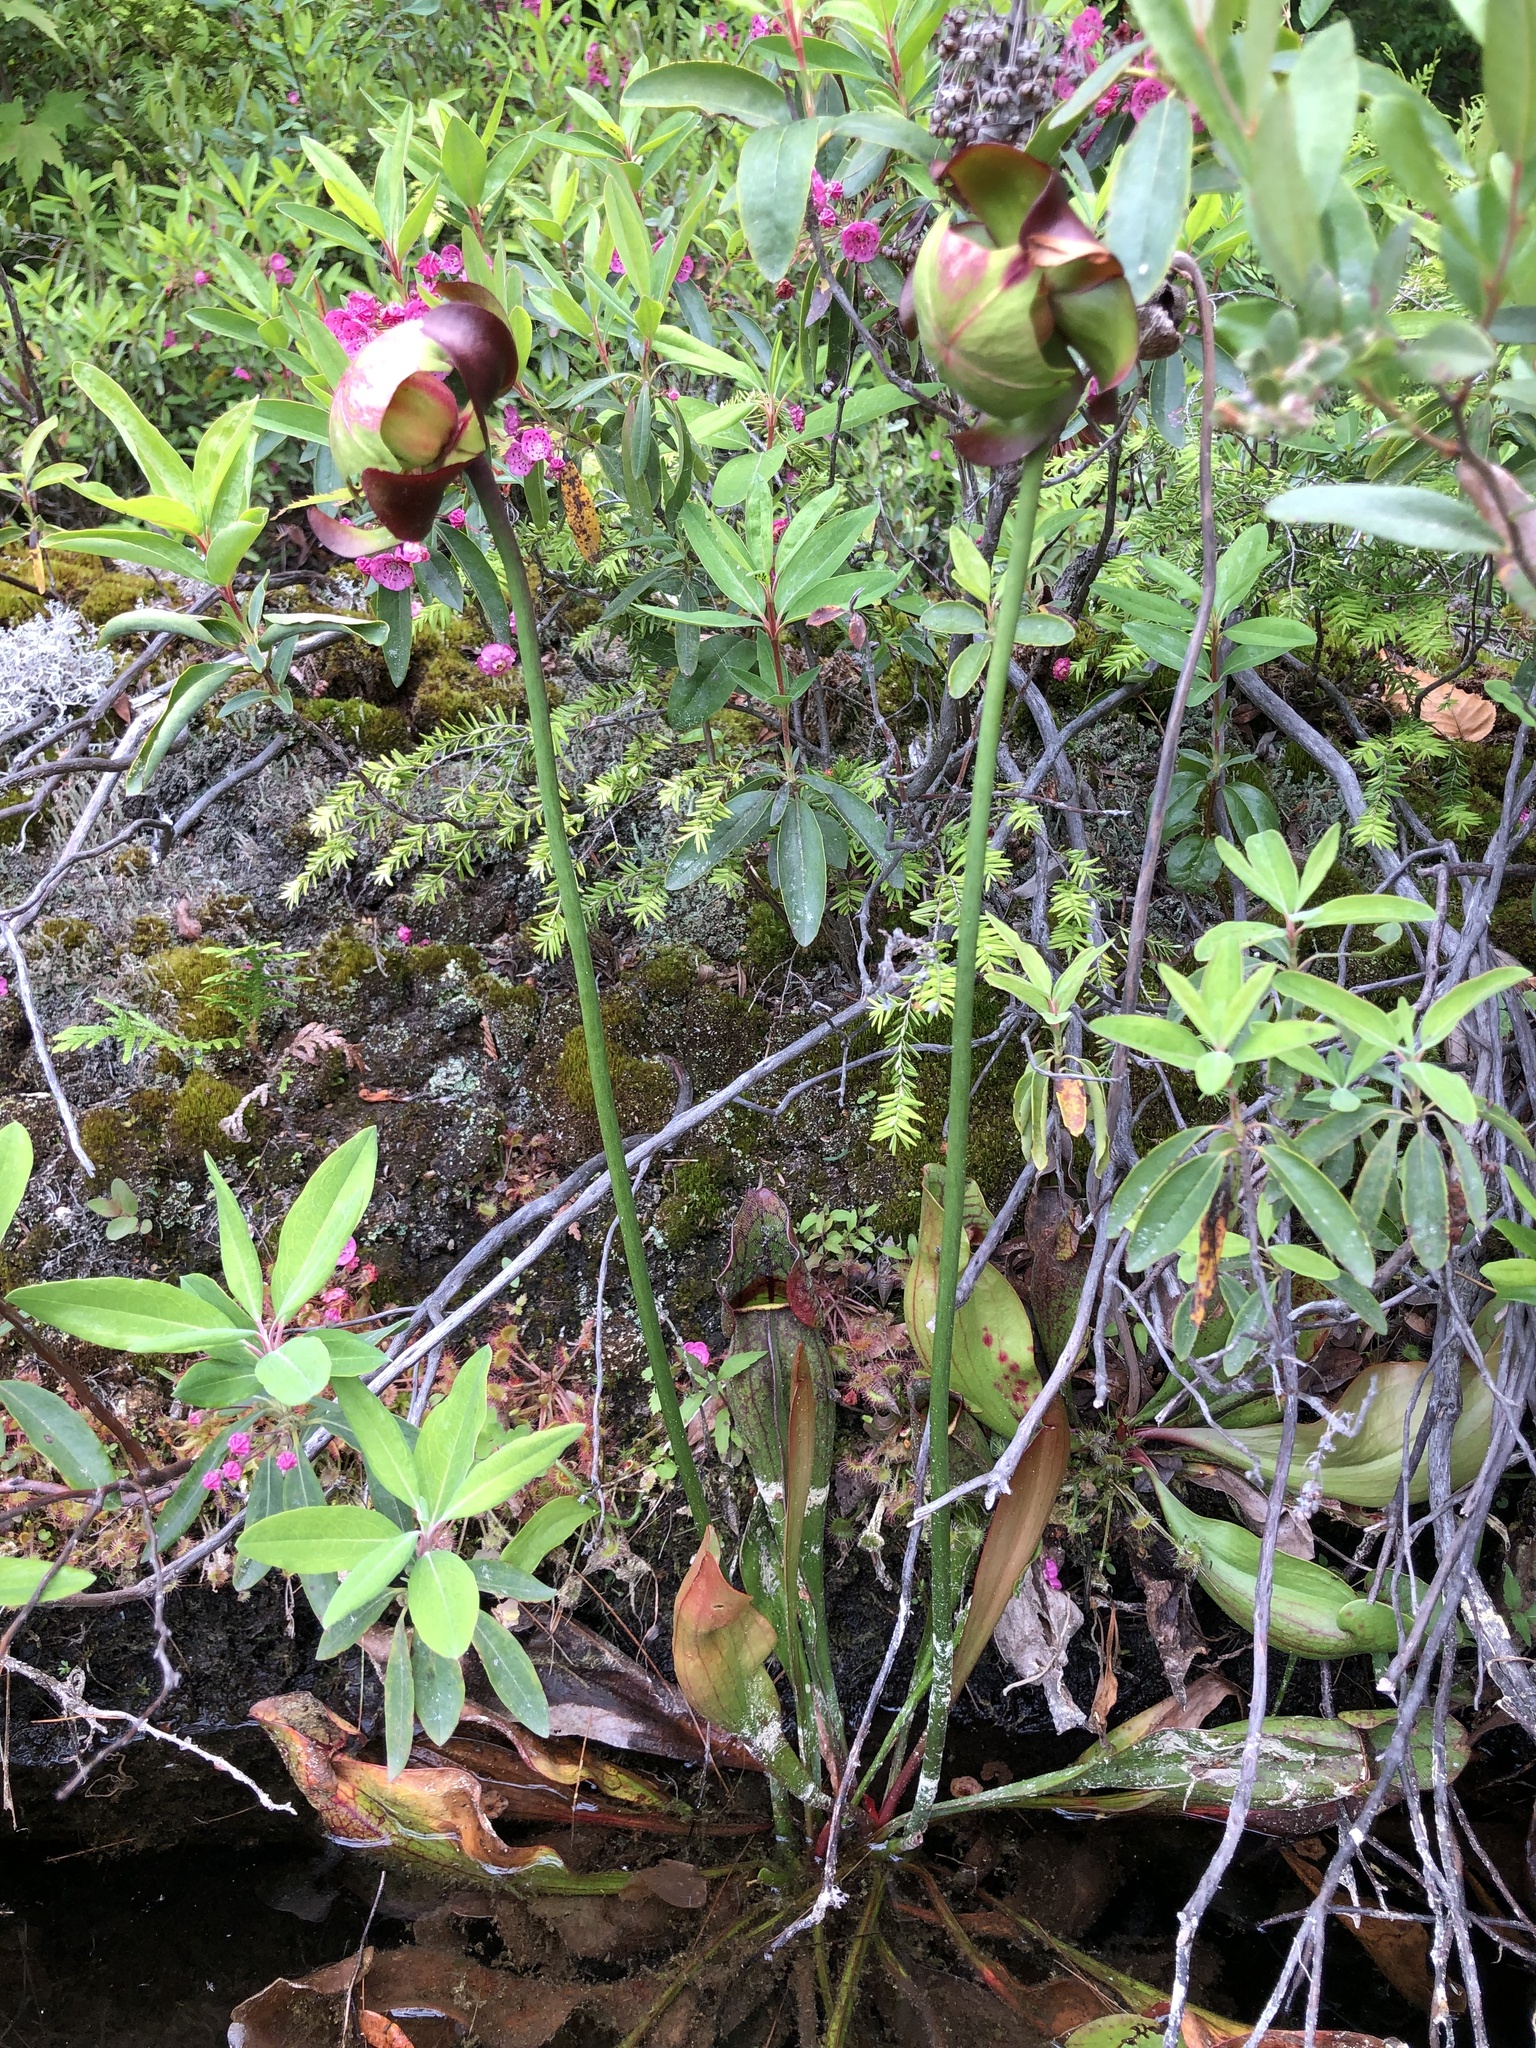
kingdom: Plantae
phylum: Tracheophyta
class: Magnoliopsida
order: Ericales
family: Sarraceniaceae
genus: Sarracenia
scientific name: Sarracenia purpurea
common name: Pitcherplant
